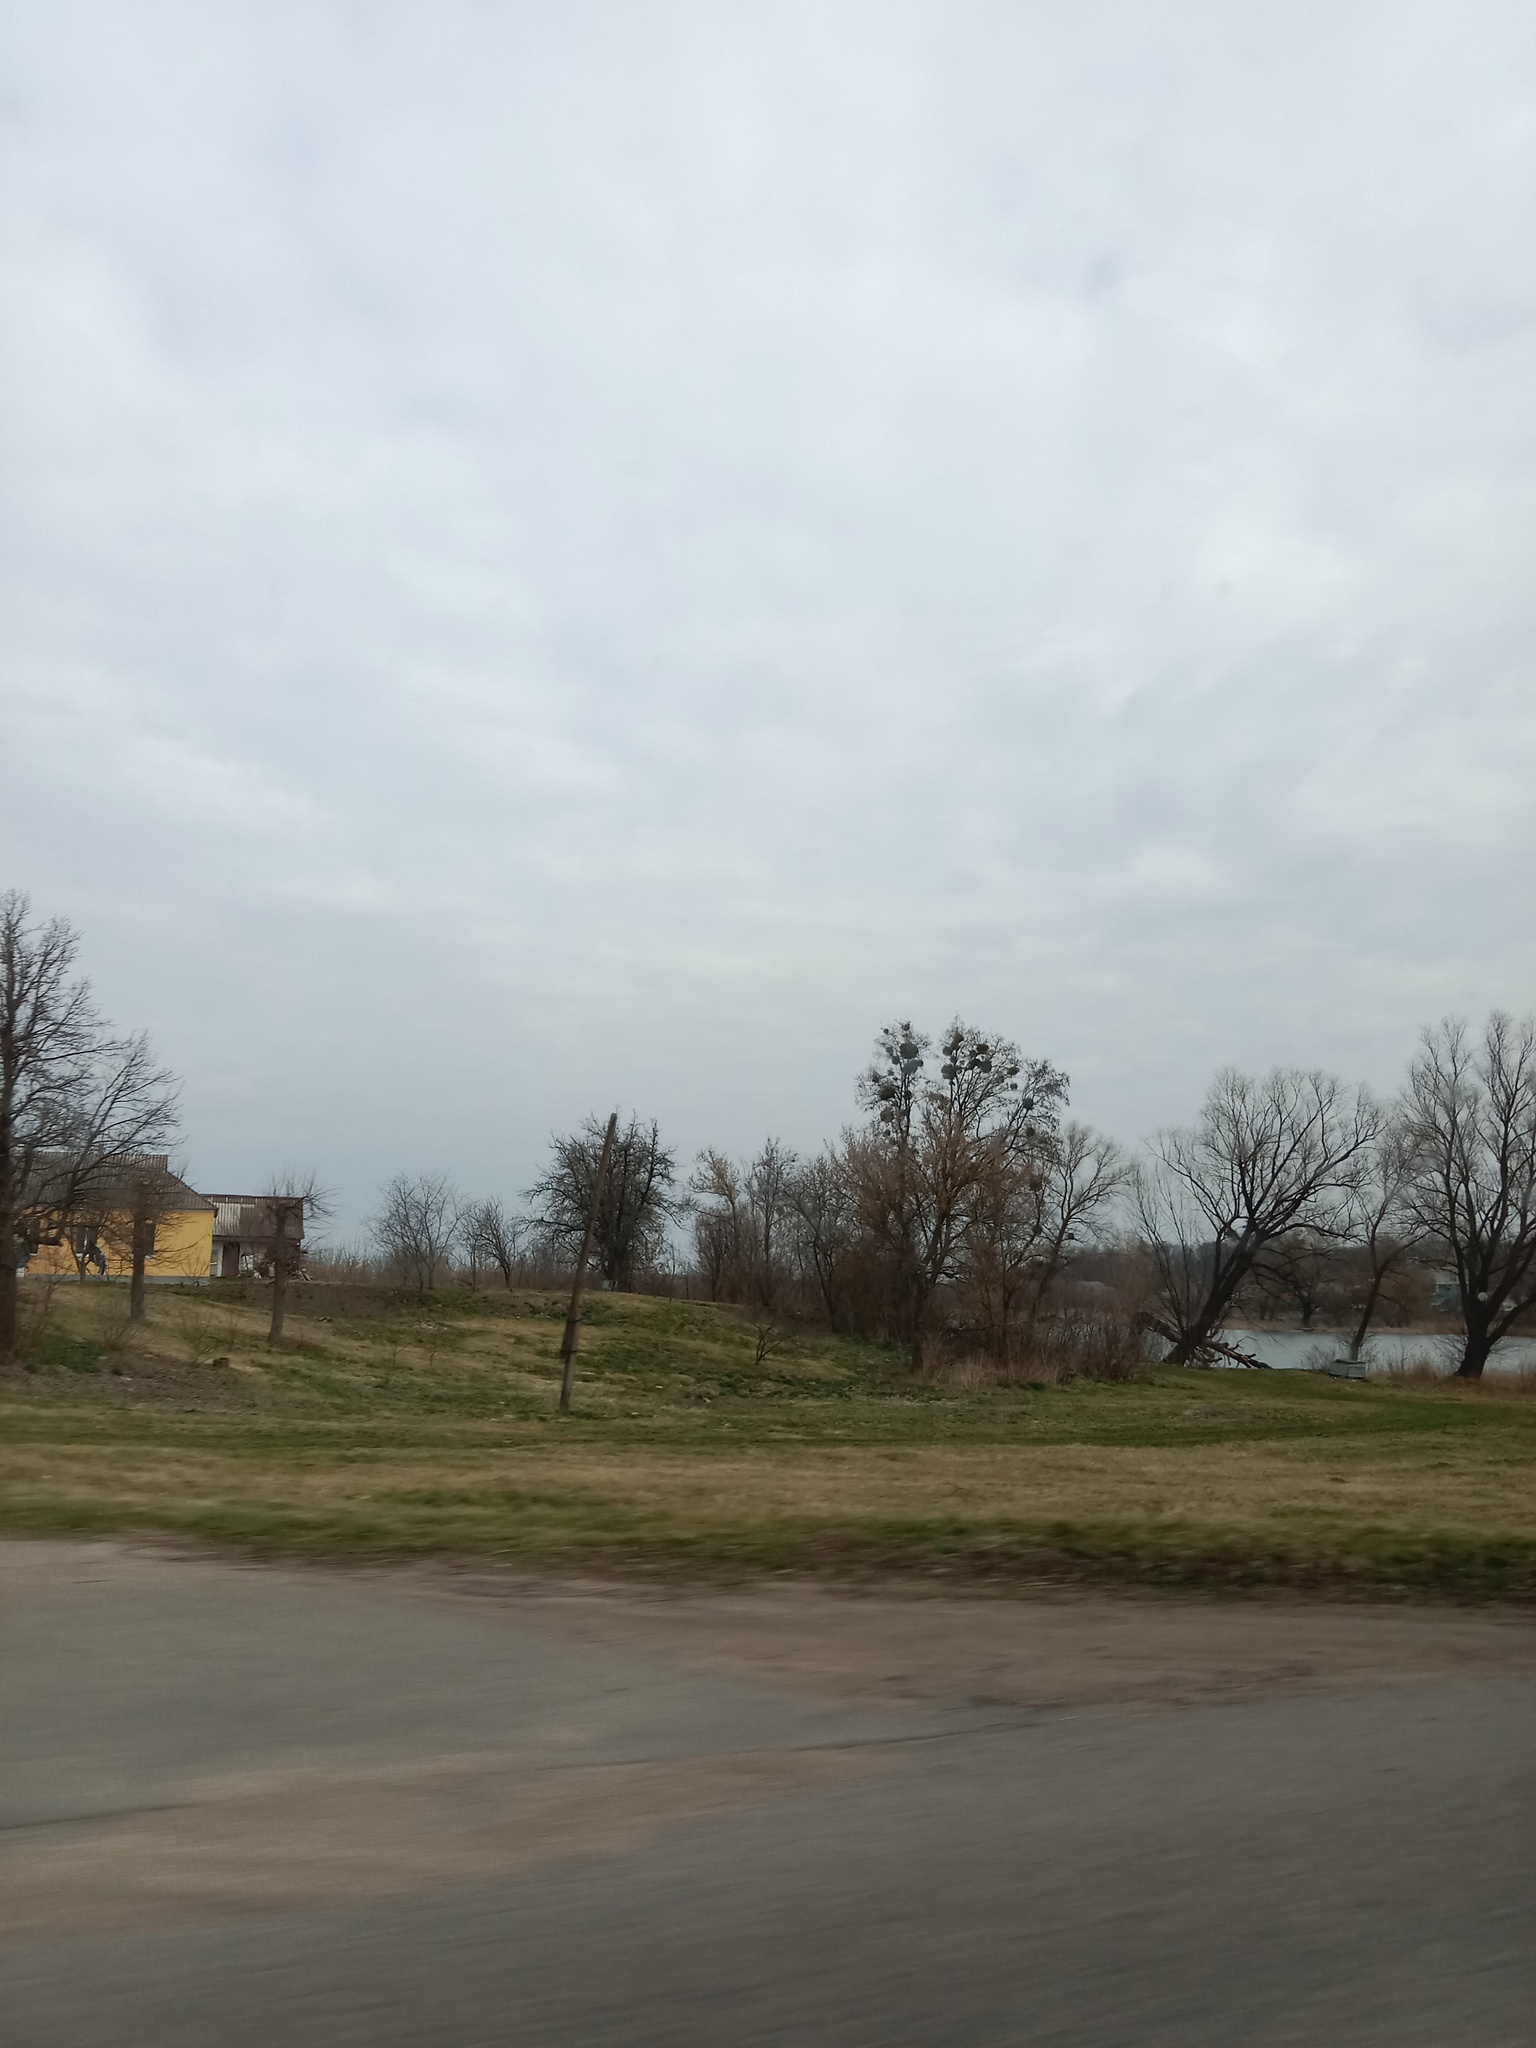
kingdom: Plantae
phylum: Tracheophyta
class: Magnoliopsida
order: Santalales
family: Viscaceae
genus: Viscum
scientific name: Viscum album
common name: Mistletoe
